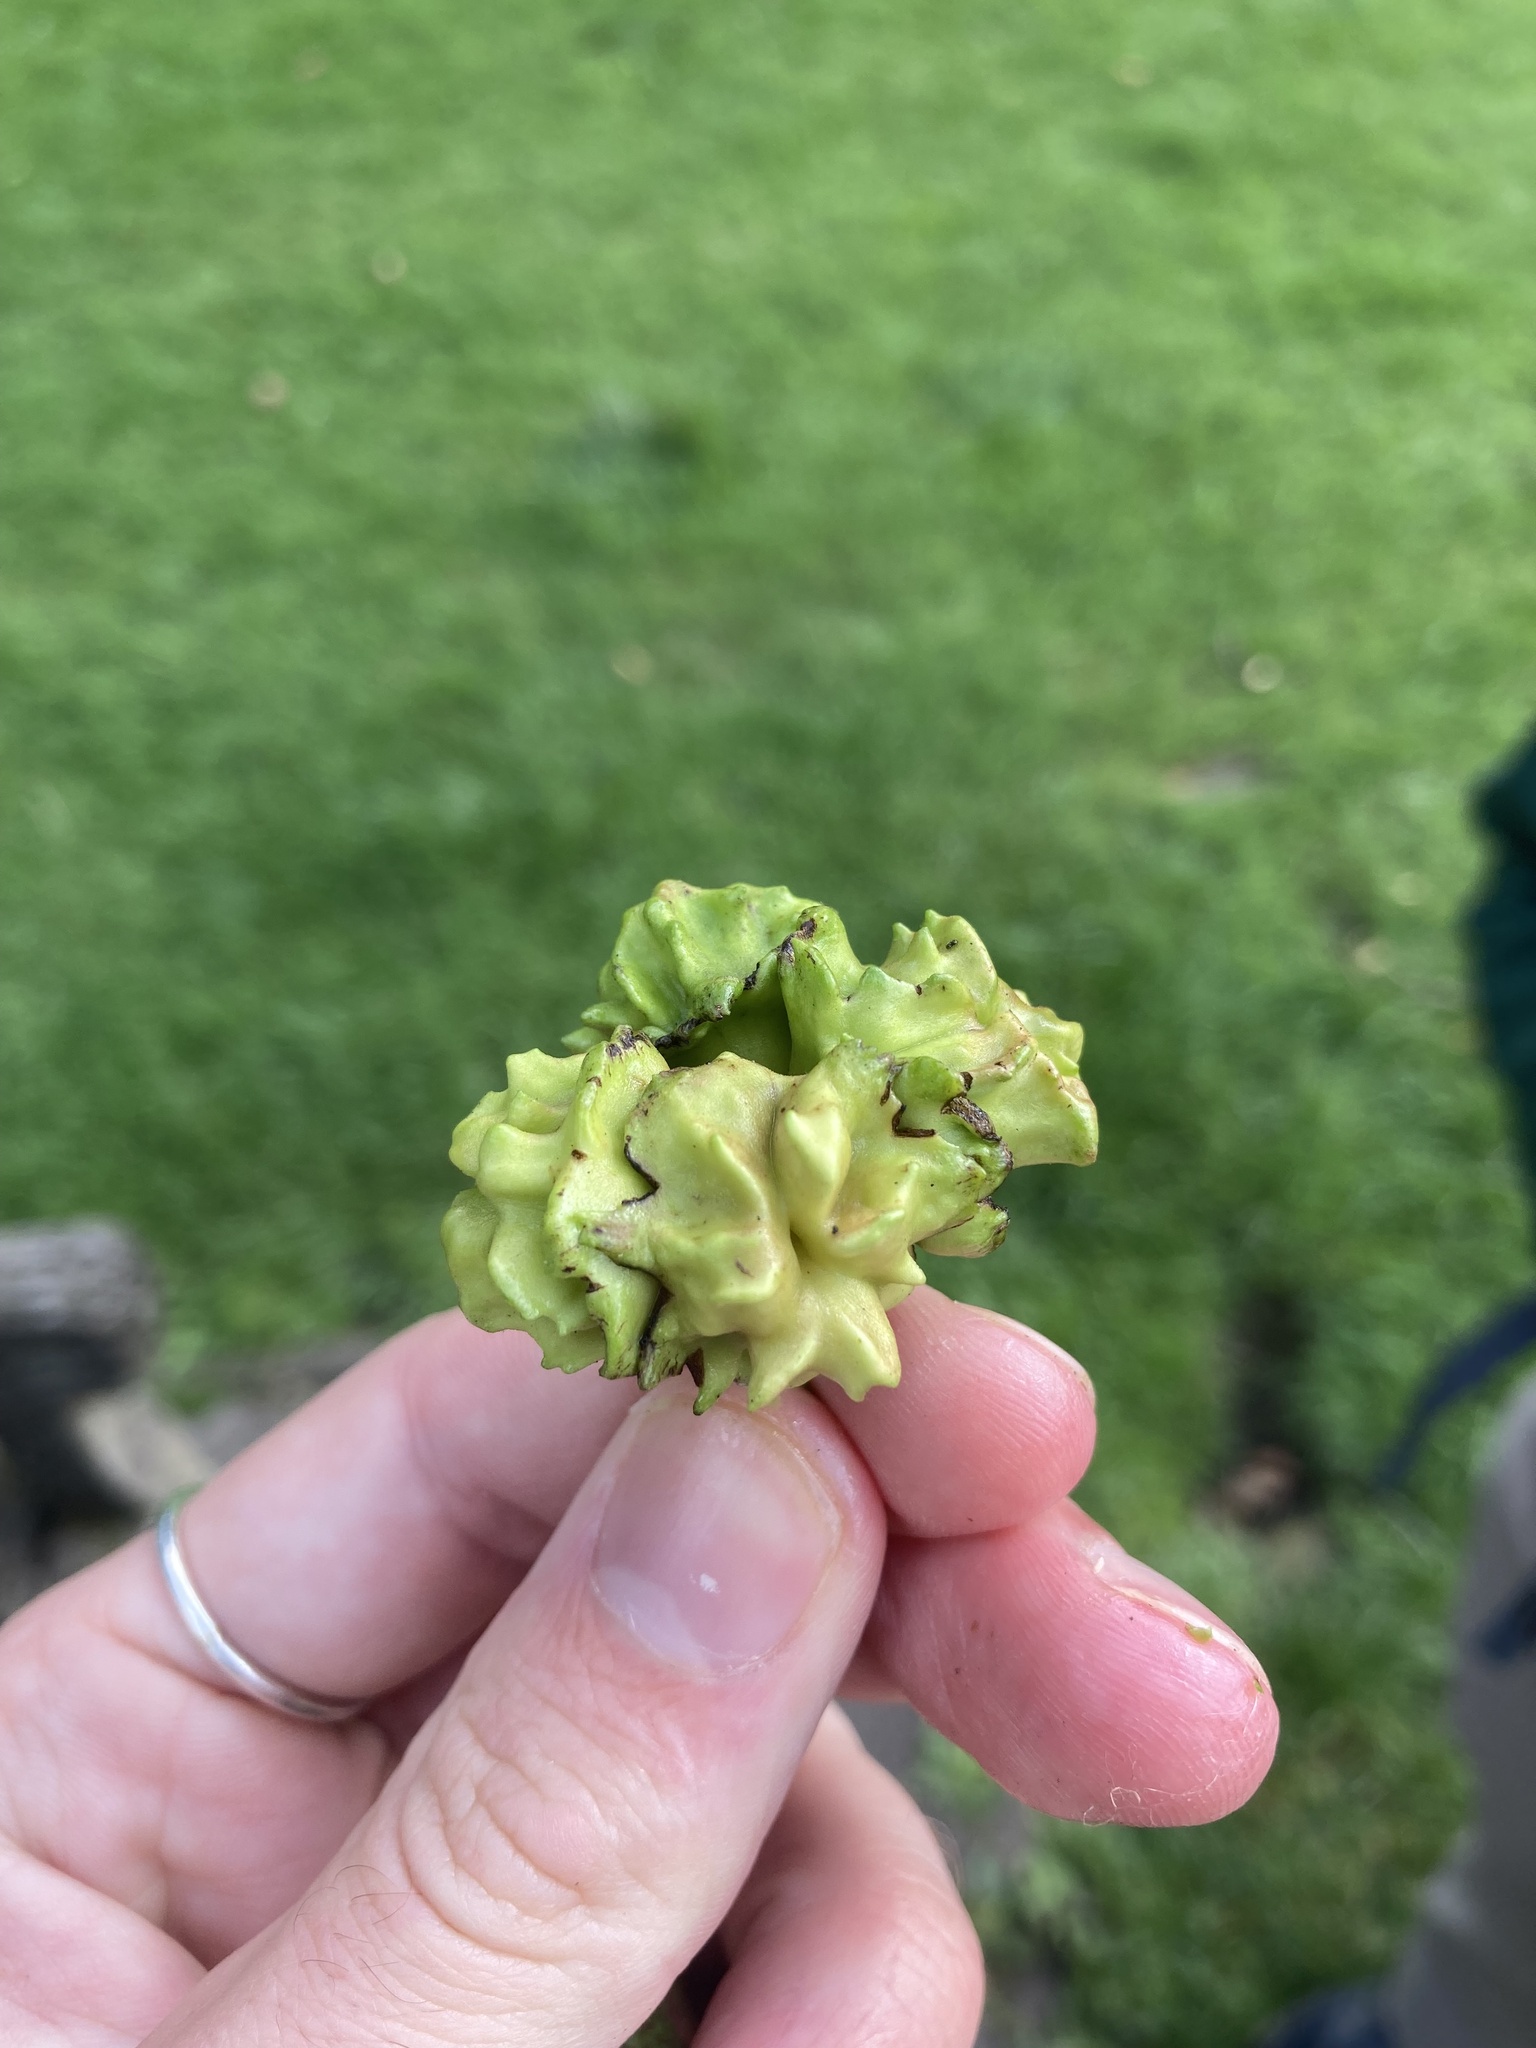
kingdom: Animalia
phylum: Arthropoda
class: Insecta
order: Hymenoptera
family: Cynipidae
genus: Andricus
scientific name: Andricus quercuscalicis
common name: Knopper gall
